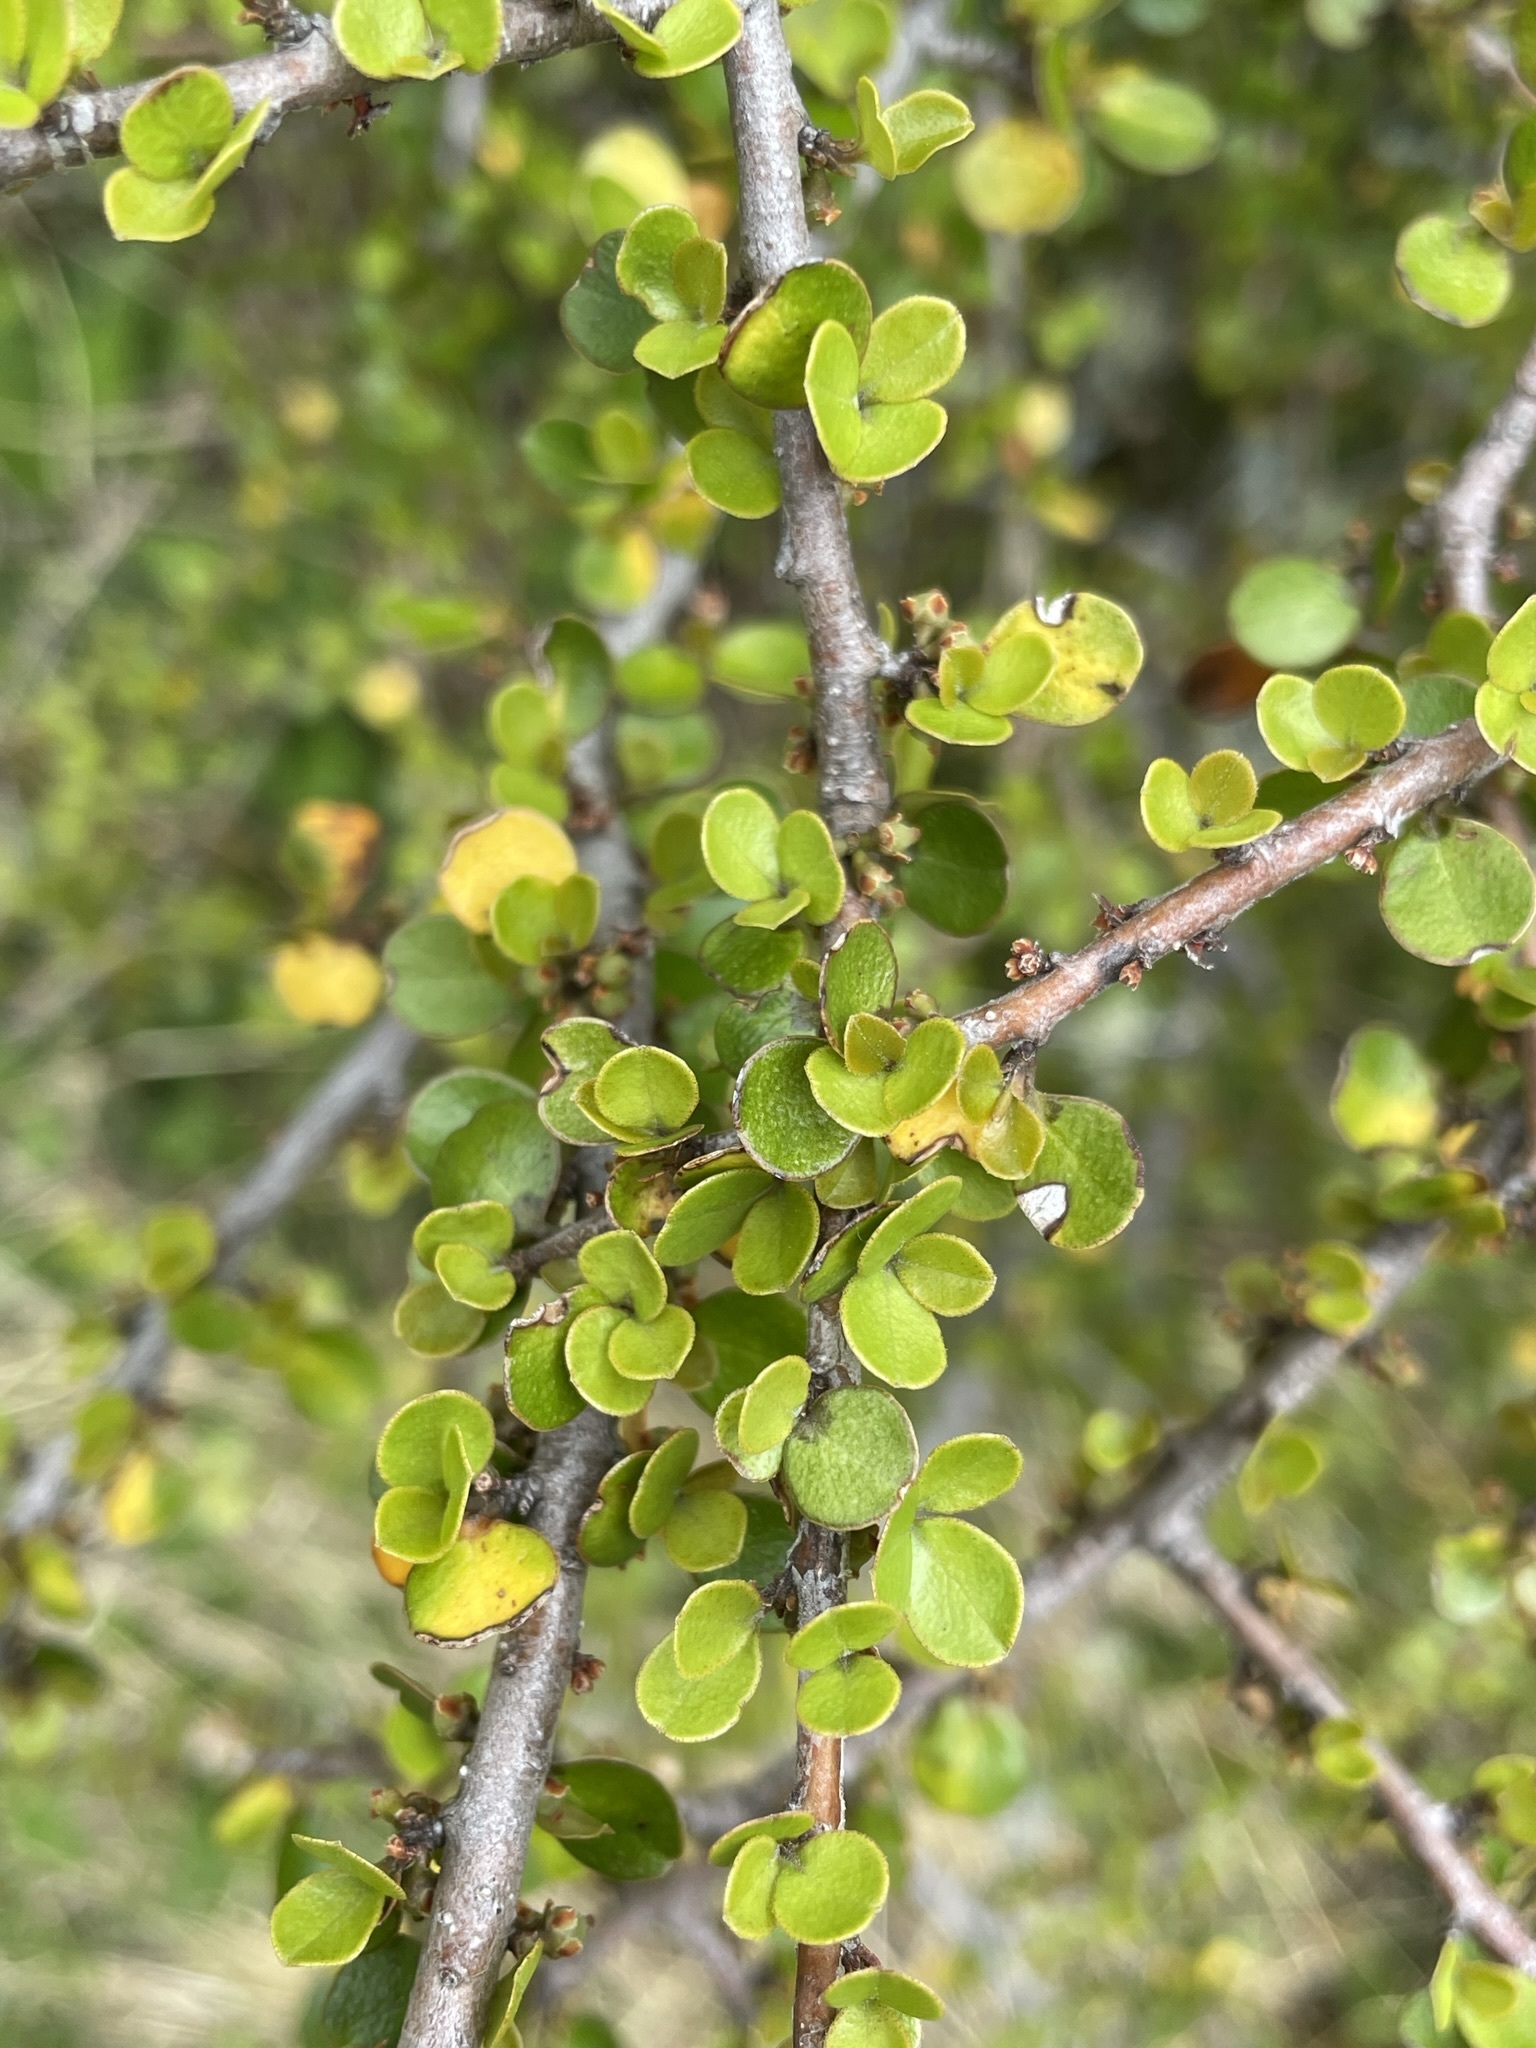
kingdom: Plantae
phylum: Tracheophyta
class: Magnoliopsida
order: Ericales
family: Primulaceae
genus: Myrsine
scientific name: Myrsine divaricata
